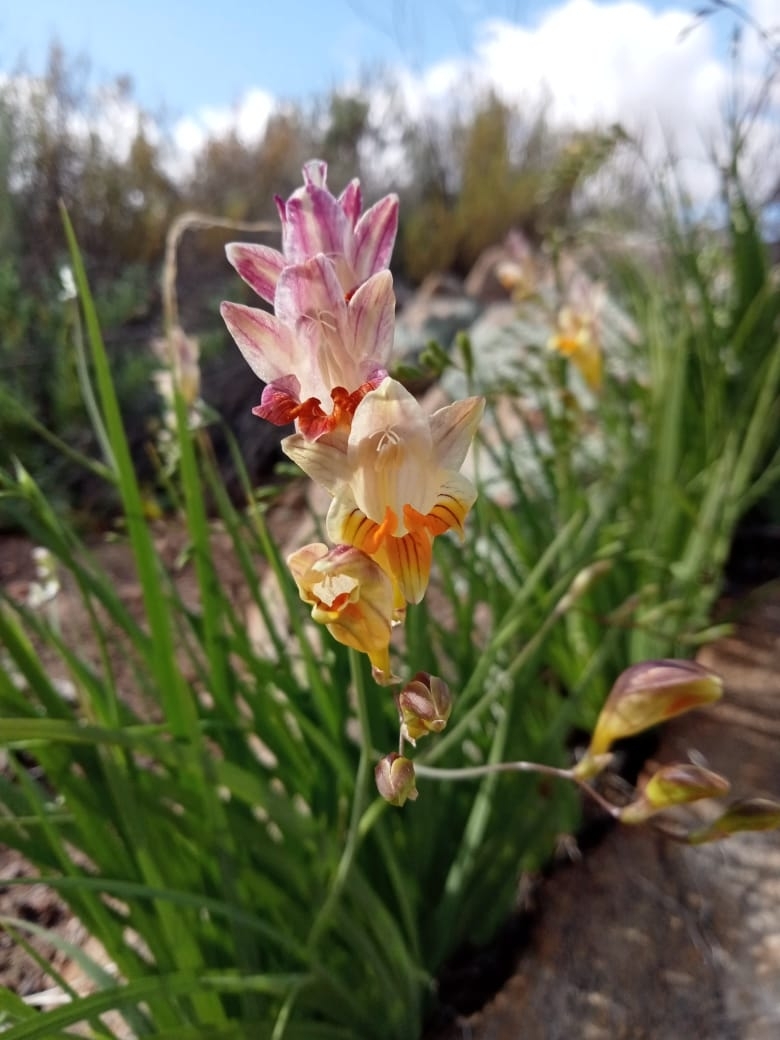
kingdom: Plantae
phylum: Tracheophyta
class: Liliopsida
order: Asparagales
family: Iridaceae
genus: Freesia
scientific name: Freesia refracta
